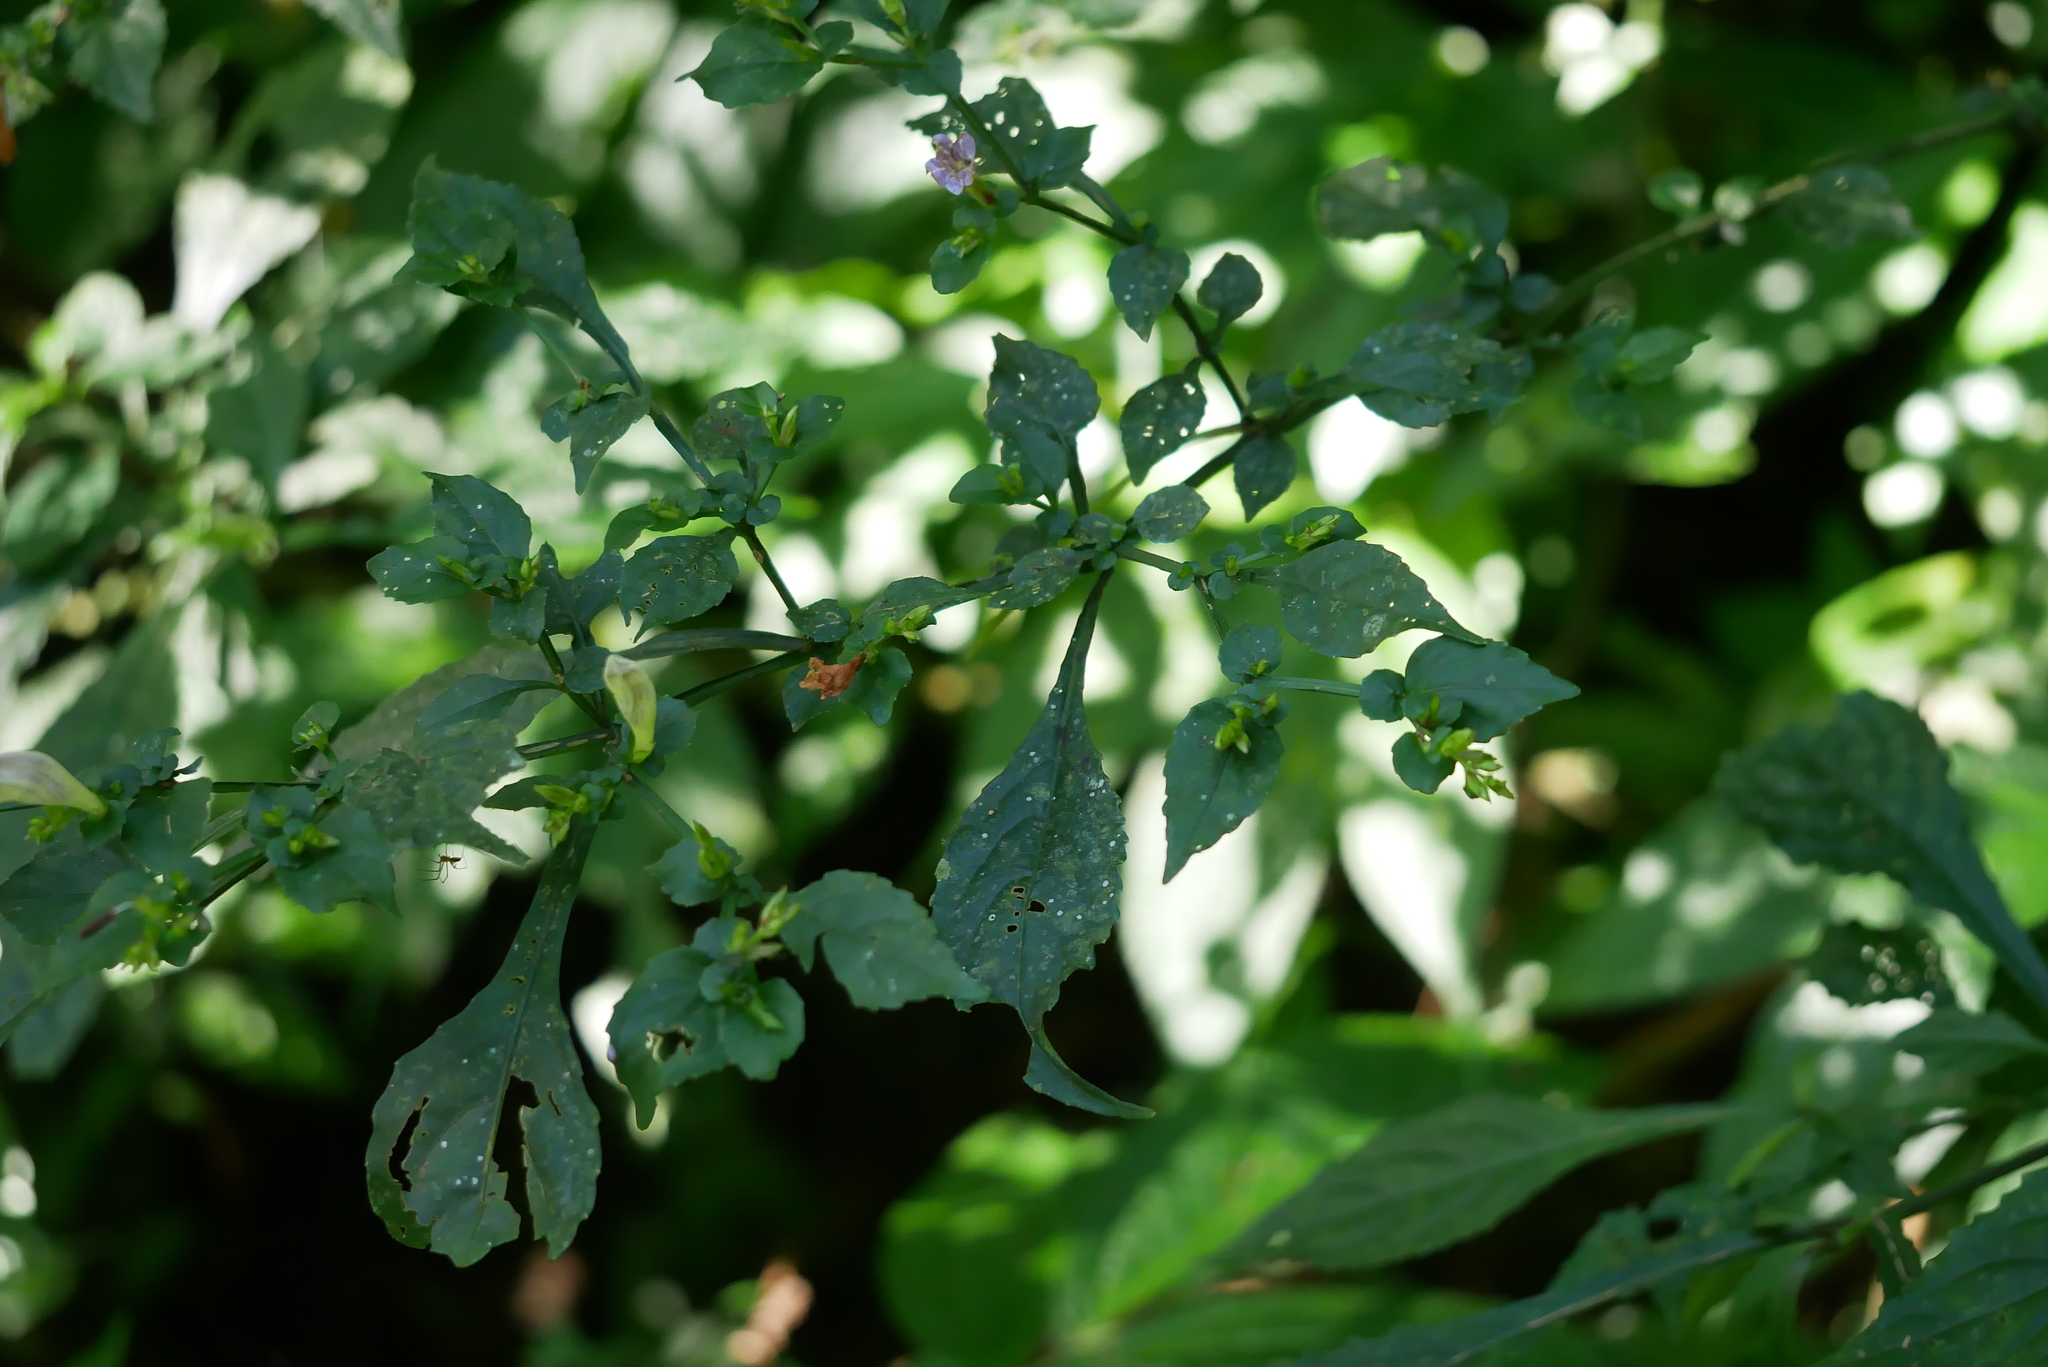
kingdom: Plantae
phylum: Tracheophyta
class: Magnoliopsida
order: Lamiales
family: Acanthaceae
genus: Strobilanthes
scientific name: Strobilanthes flexicaulis
